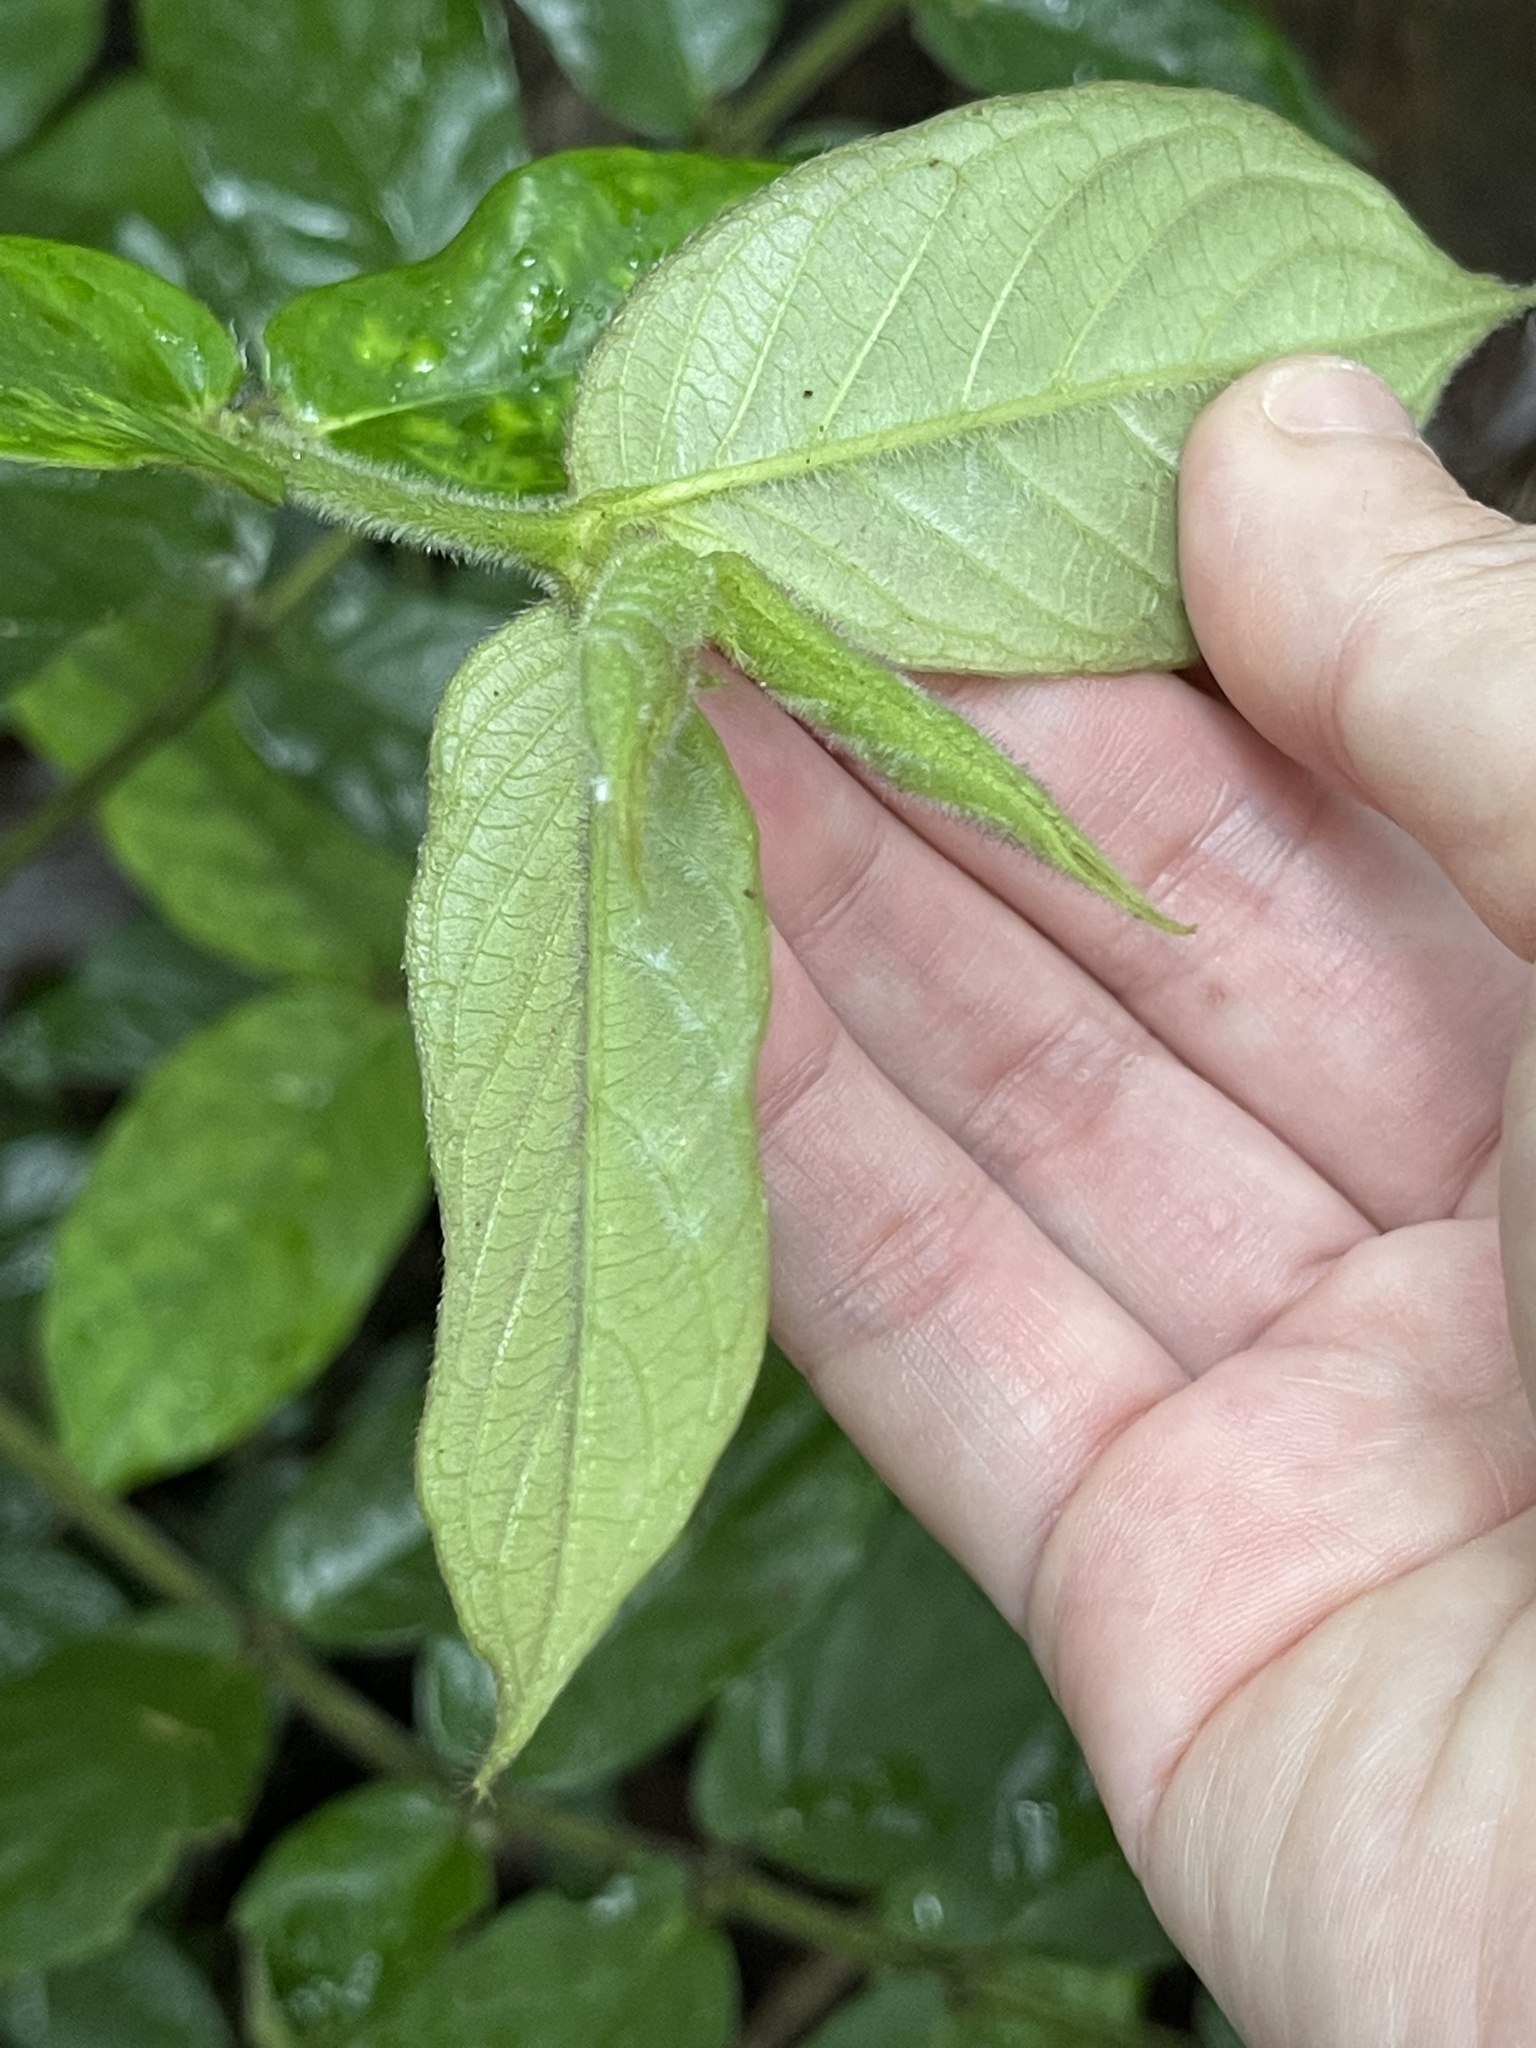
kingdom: Plantae
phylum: Tracheophyta
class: Magnoliopsida
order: Gentianales
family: Rubiaceae
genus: Lasianthus
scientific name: Lasianthus attenuatus
